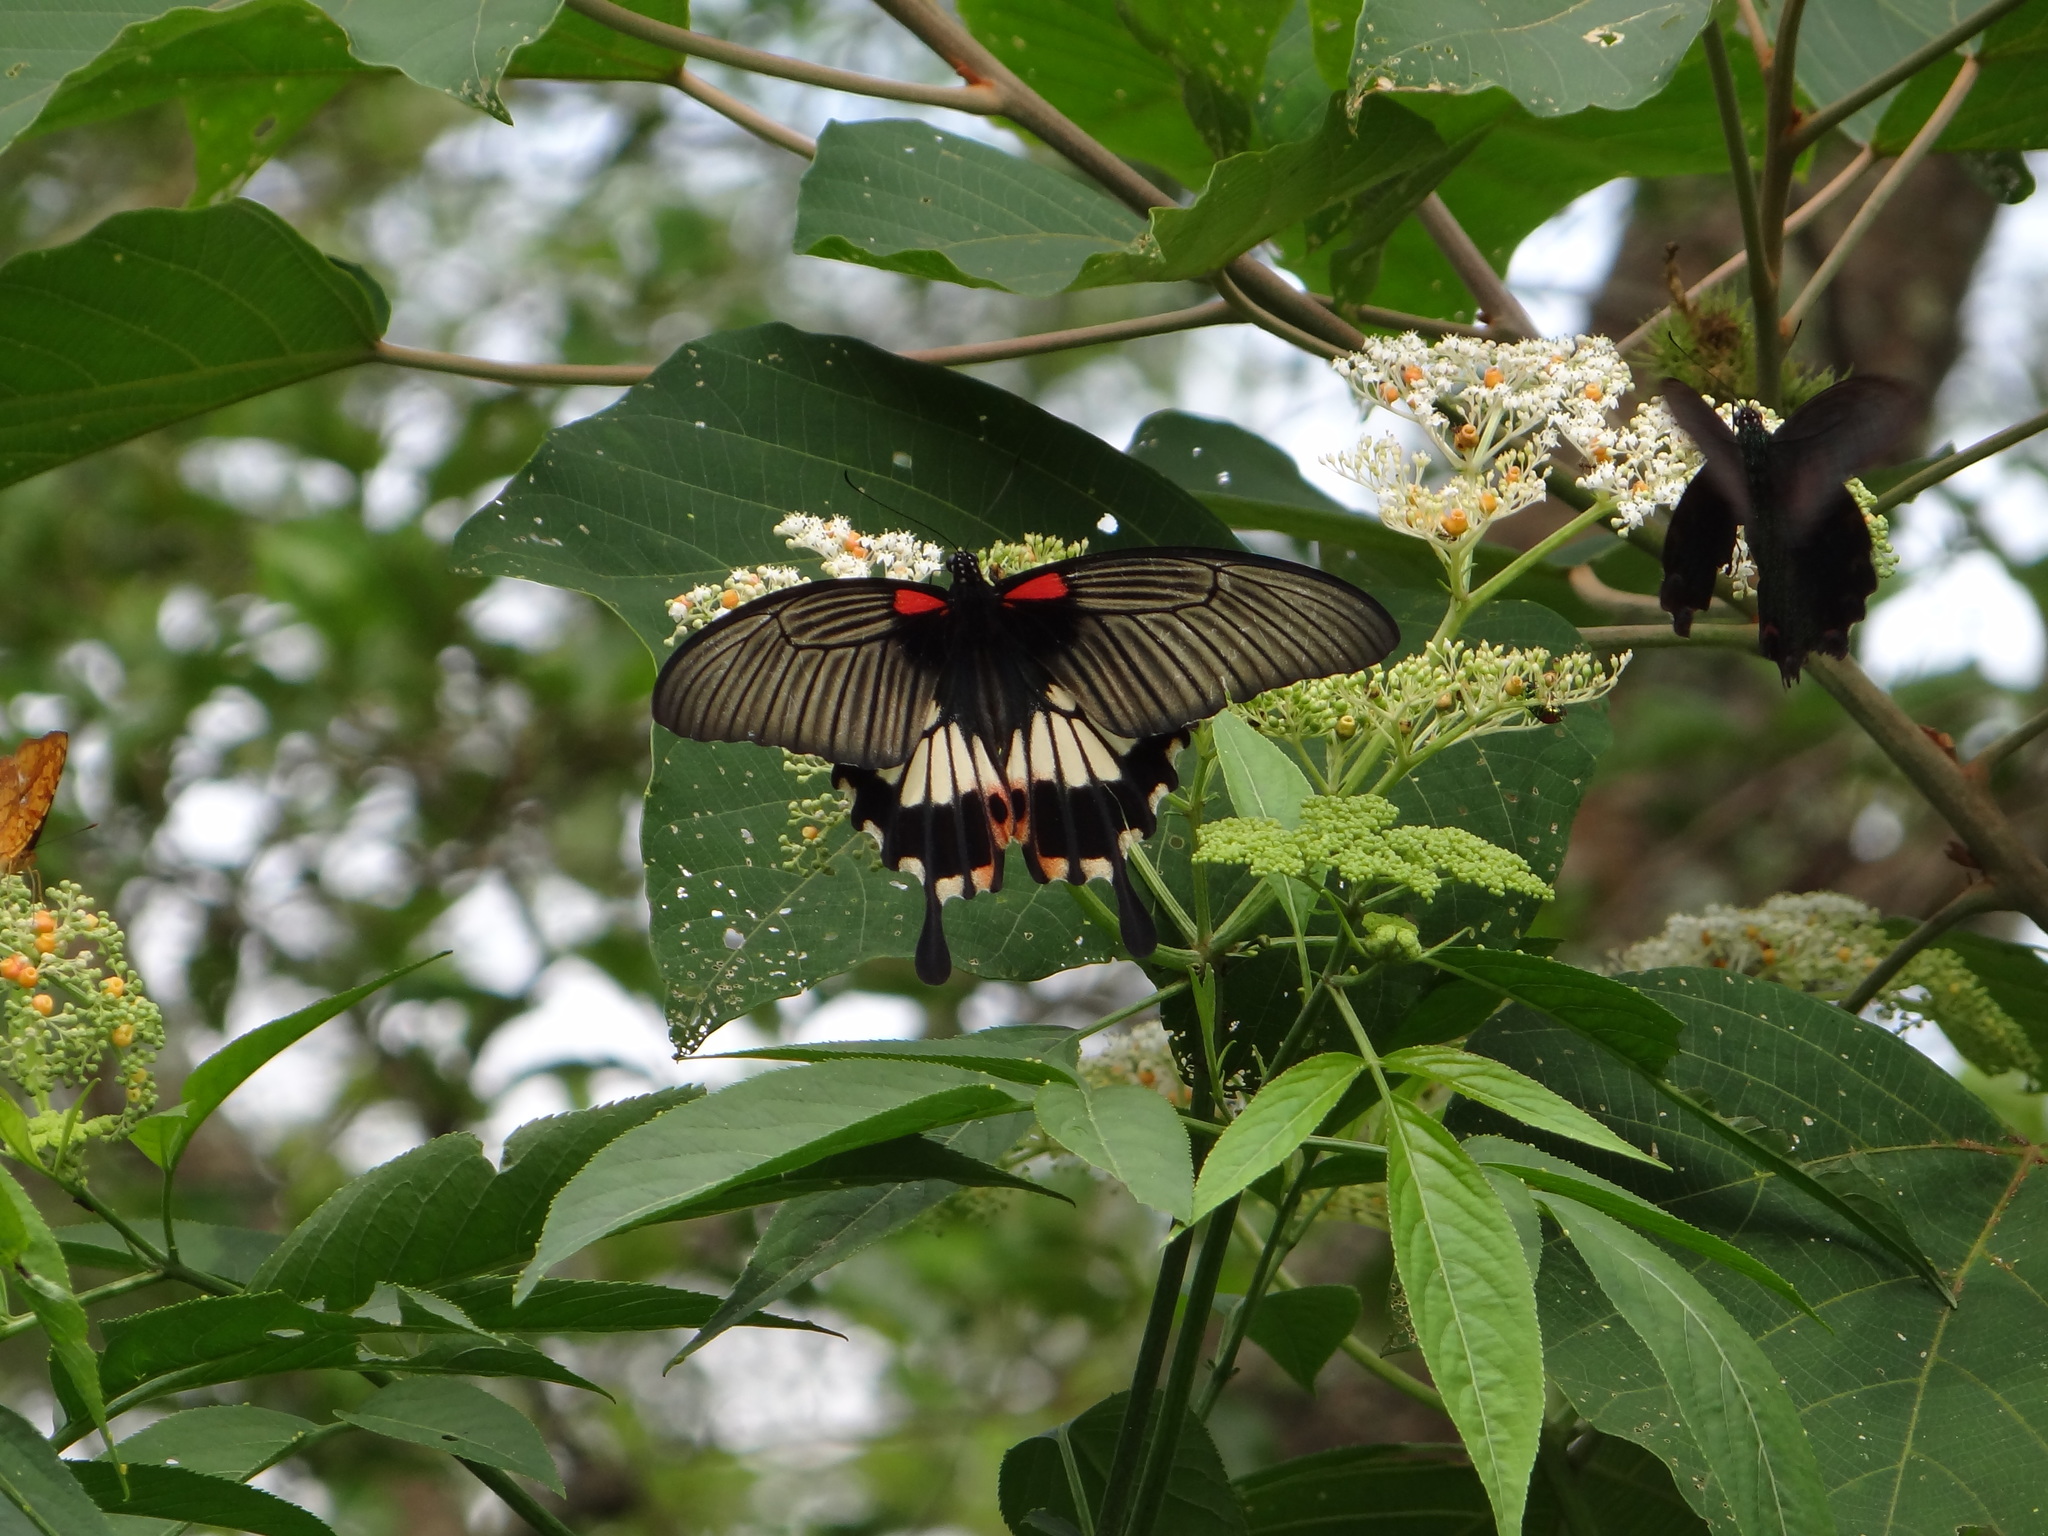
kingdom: Animalia
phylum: Arthropoda
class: Insecta
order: Lepidoptera
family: Papilionidae
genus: Papilio
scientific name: Papilio memnon
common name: Great mormon
